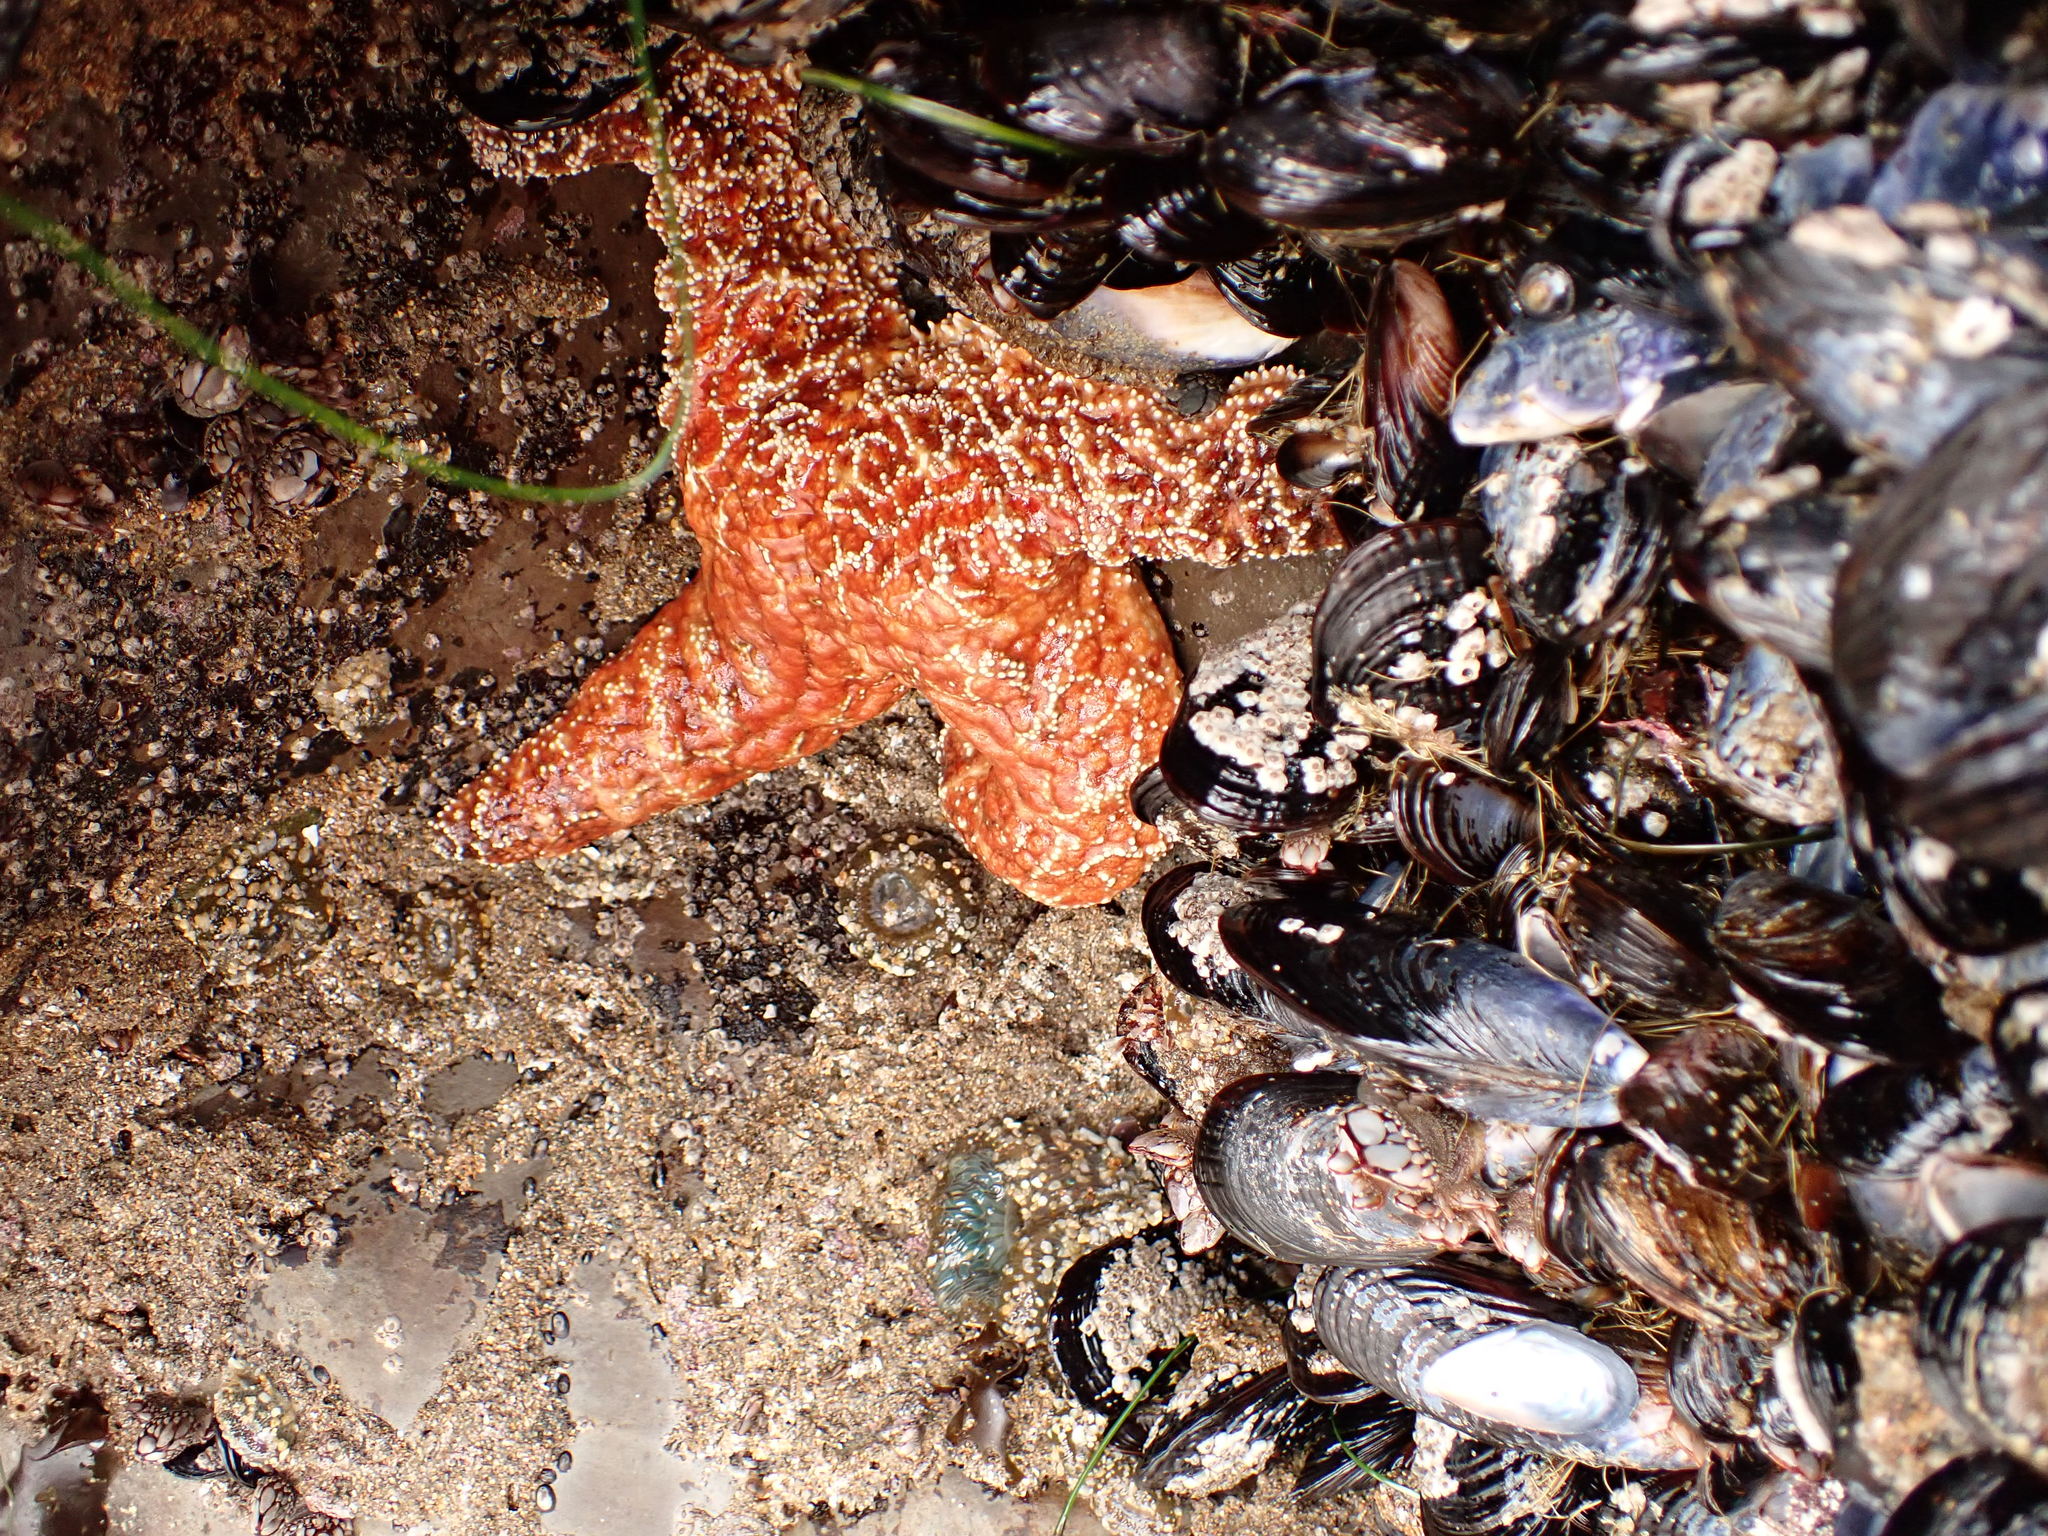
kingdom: Animalia
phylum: Echinodermata
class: Asteroidea
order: Forcipulatida
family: Asteriidae
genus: Pisaster
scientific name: Pisaster ochraceus
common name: Ochre stars
